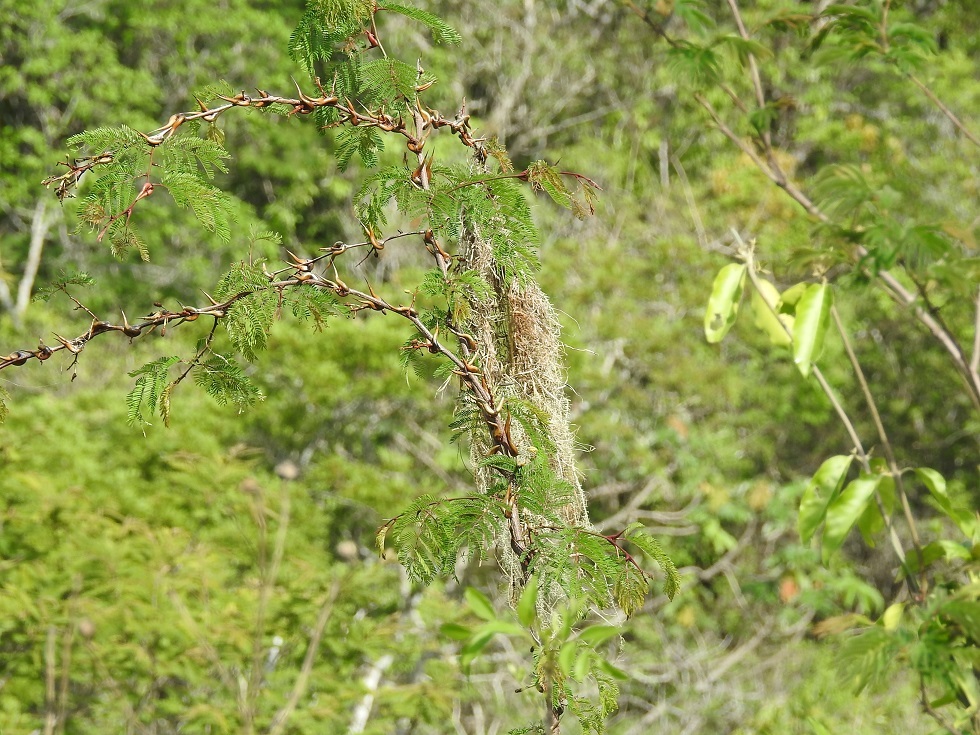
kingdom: Plantae
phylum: Tracheophyta
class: Magnoliopsida
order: Fabales
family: Fabaceae
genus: Vachellia
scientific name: Vachellia cornigera
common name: Bullhorn wattle
